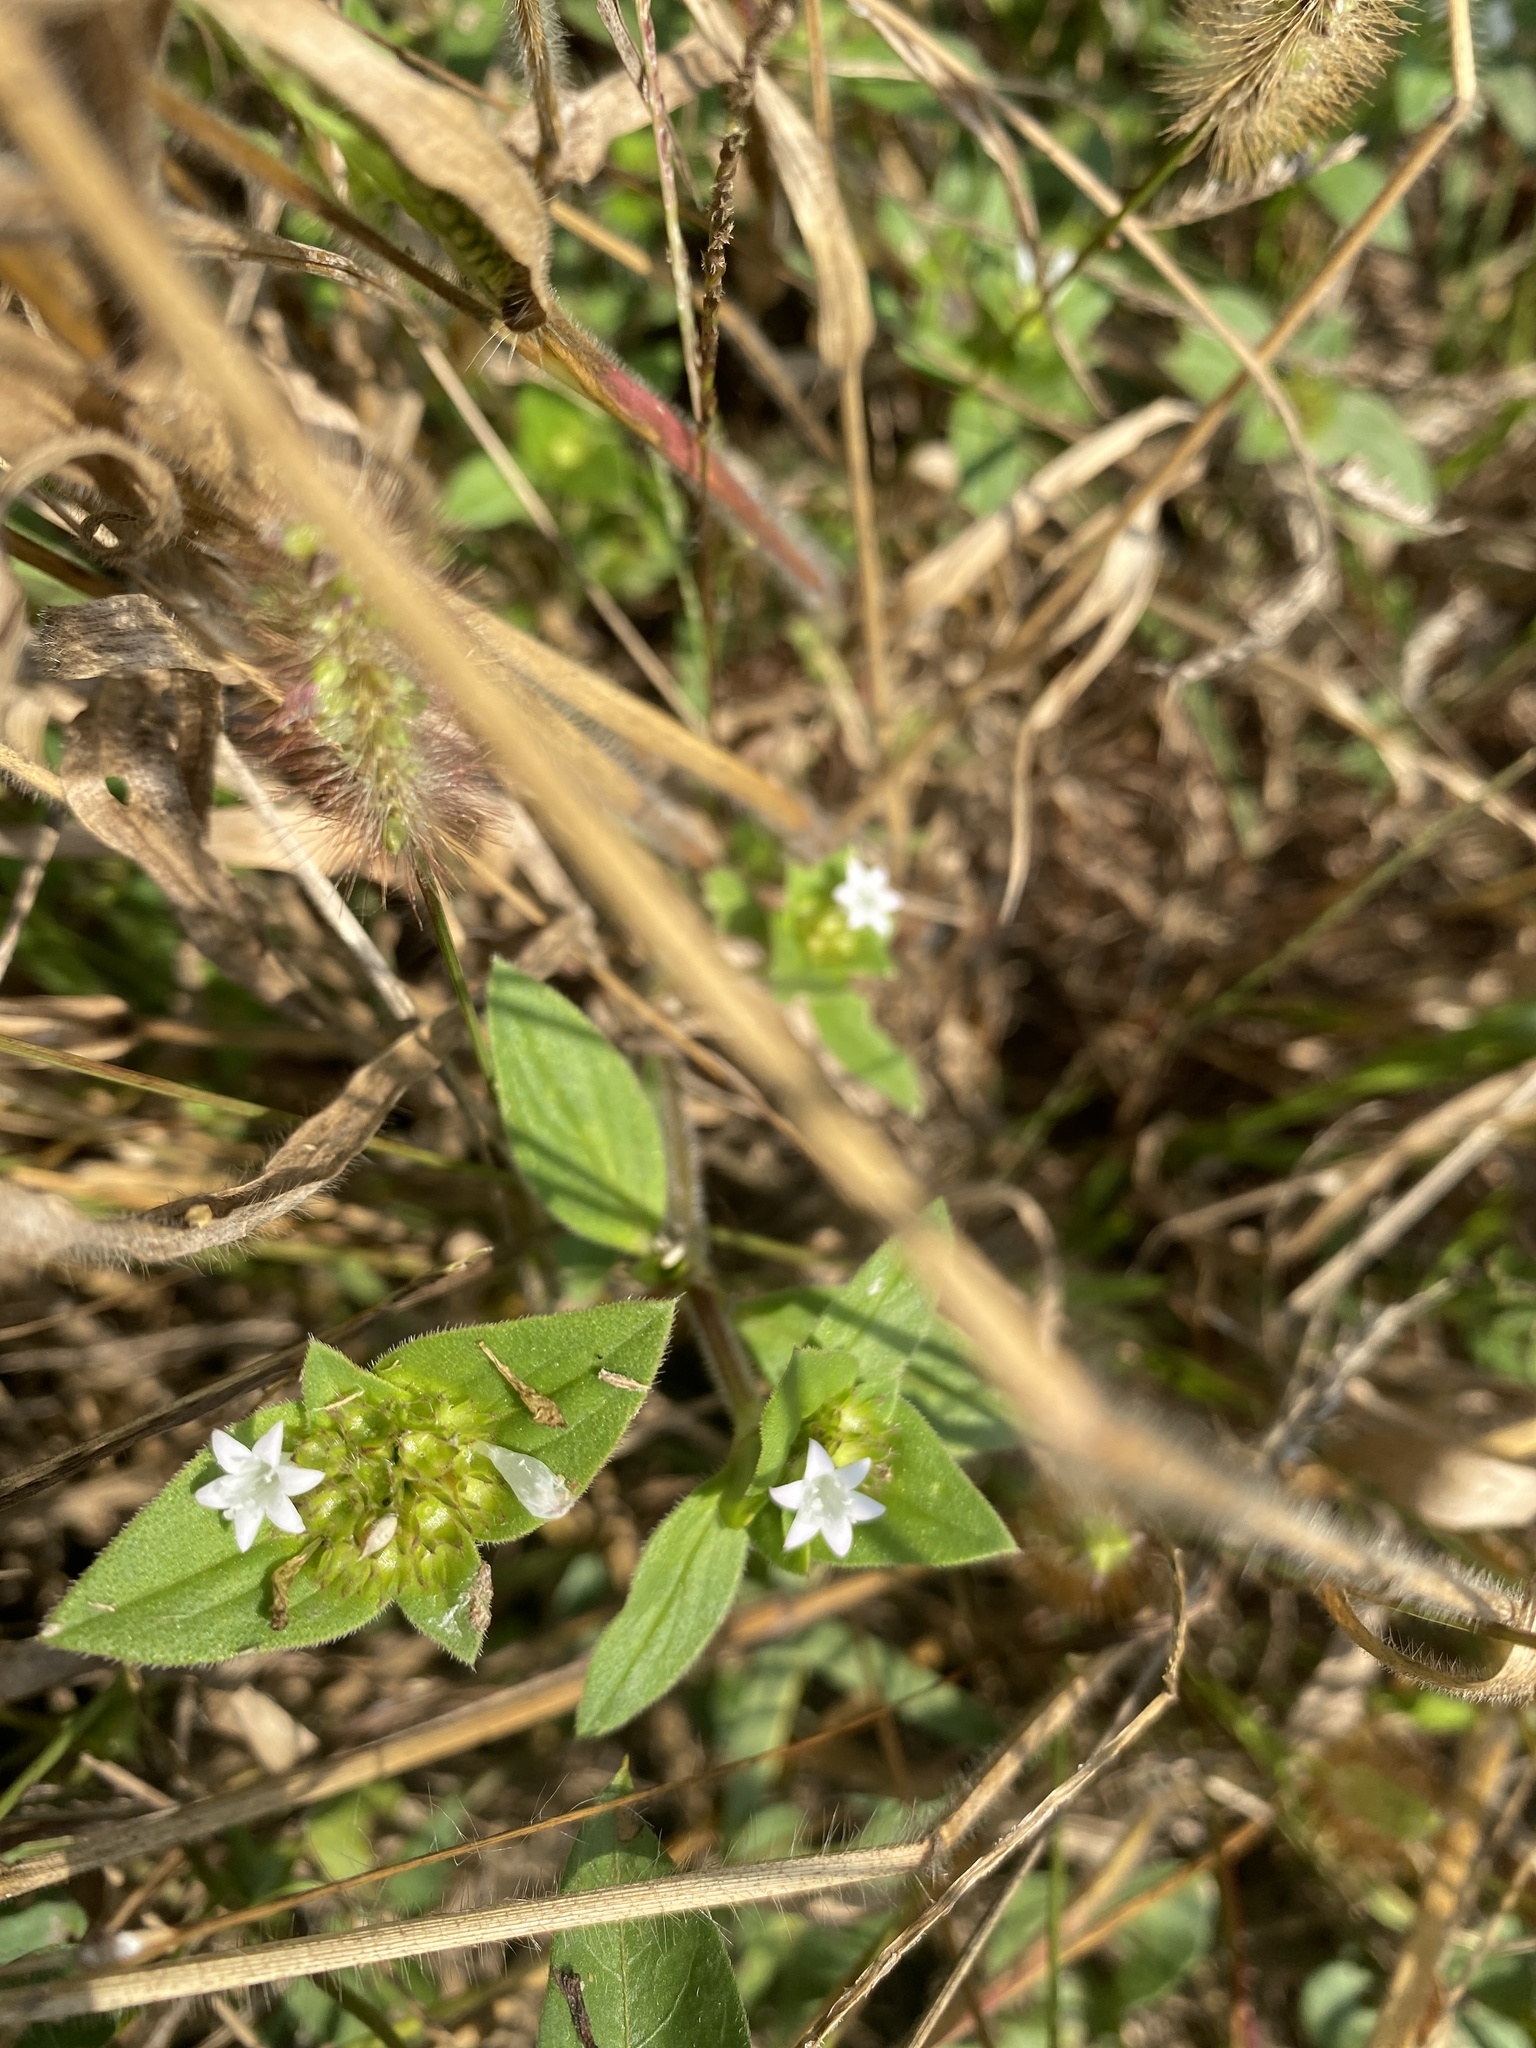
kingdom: Plantae
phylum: Tracheophyta
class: Magnoliopsida
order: Gentianales
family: Rubiaceae
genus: Richardia
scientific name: Richardia brasiliensis
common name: Tropical mexican clover
